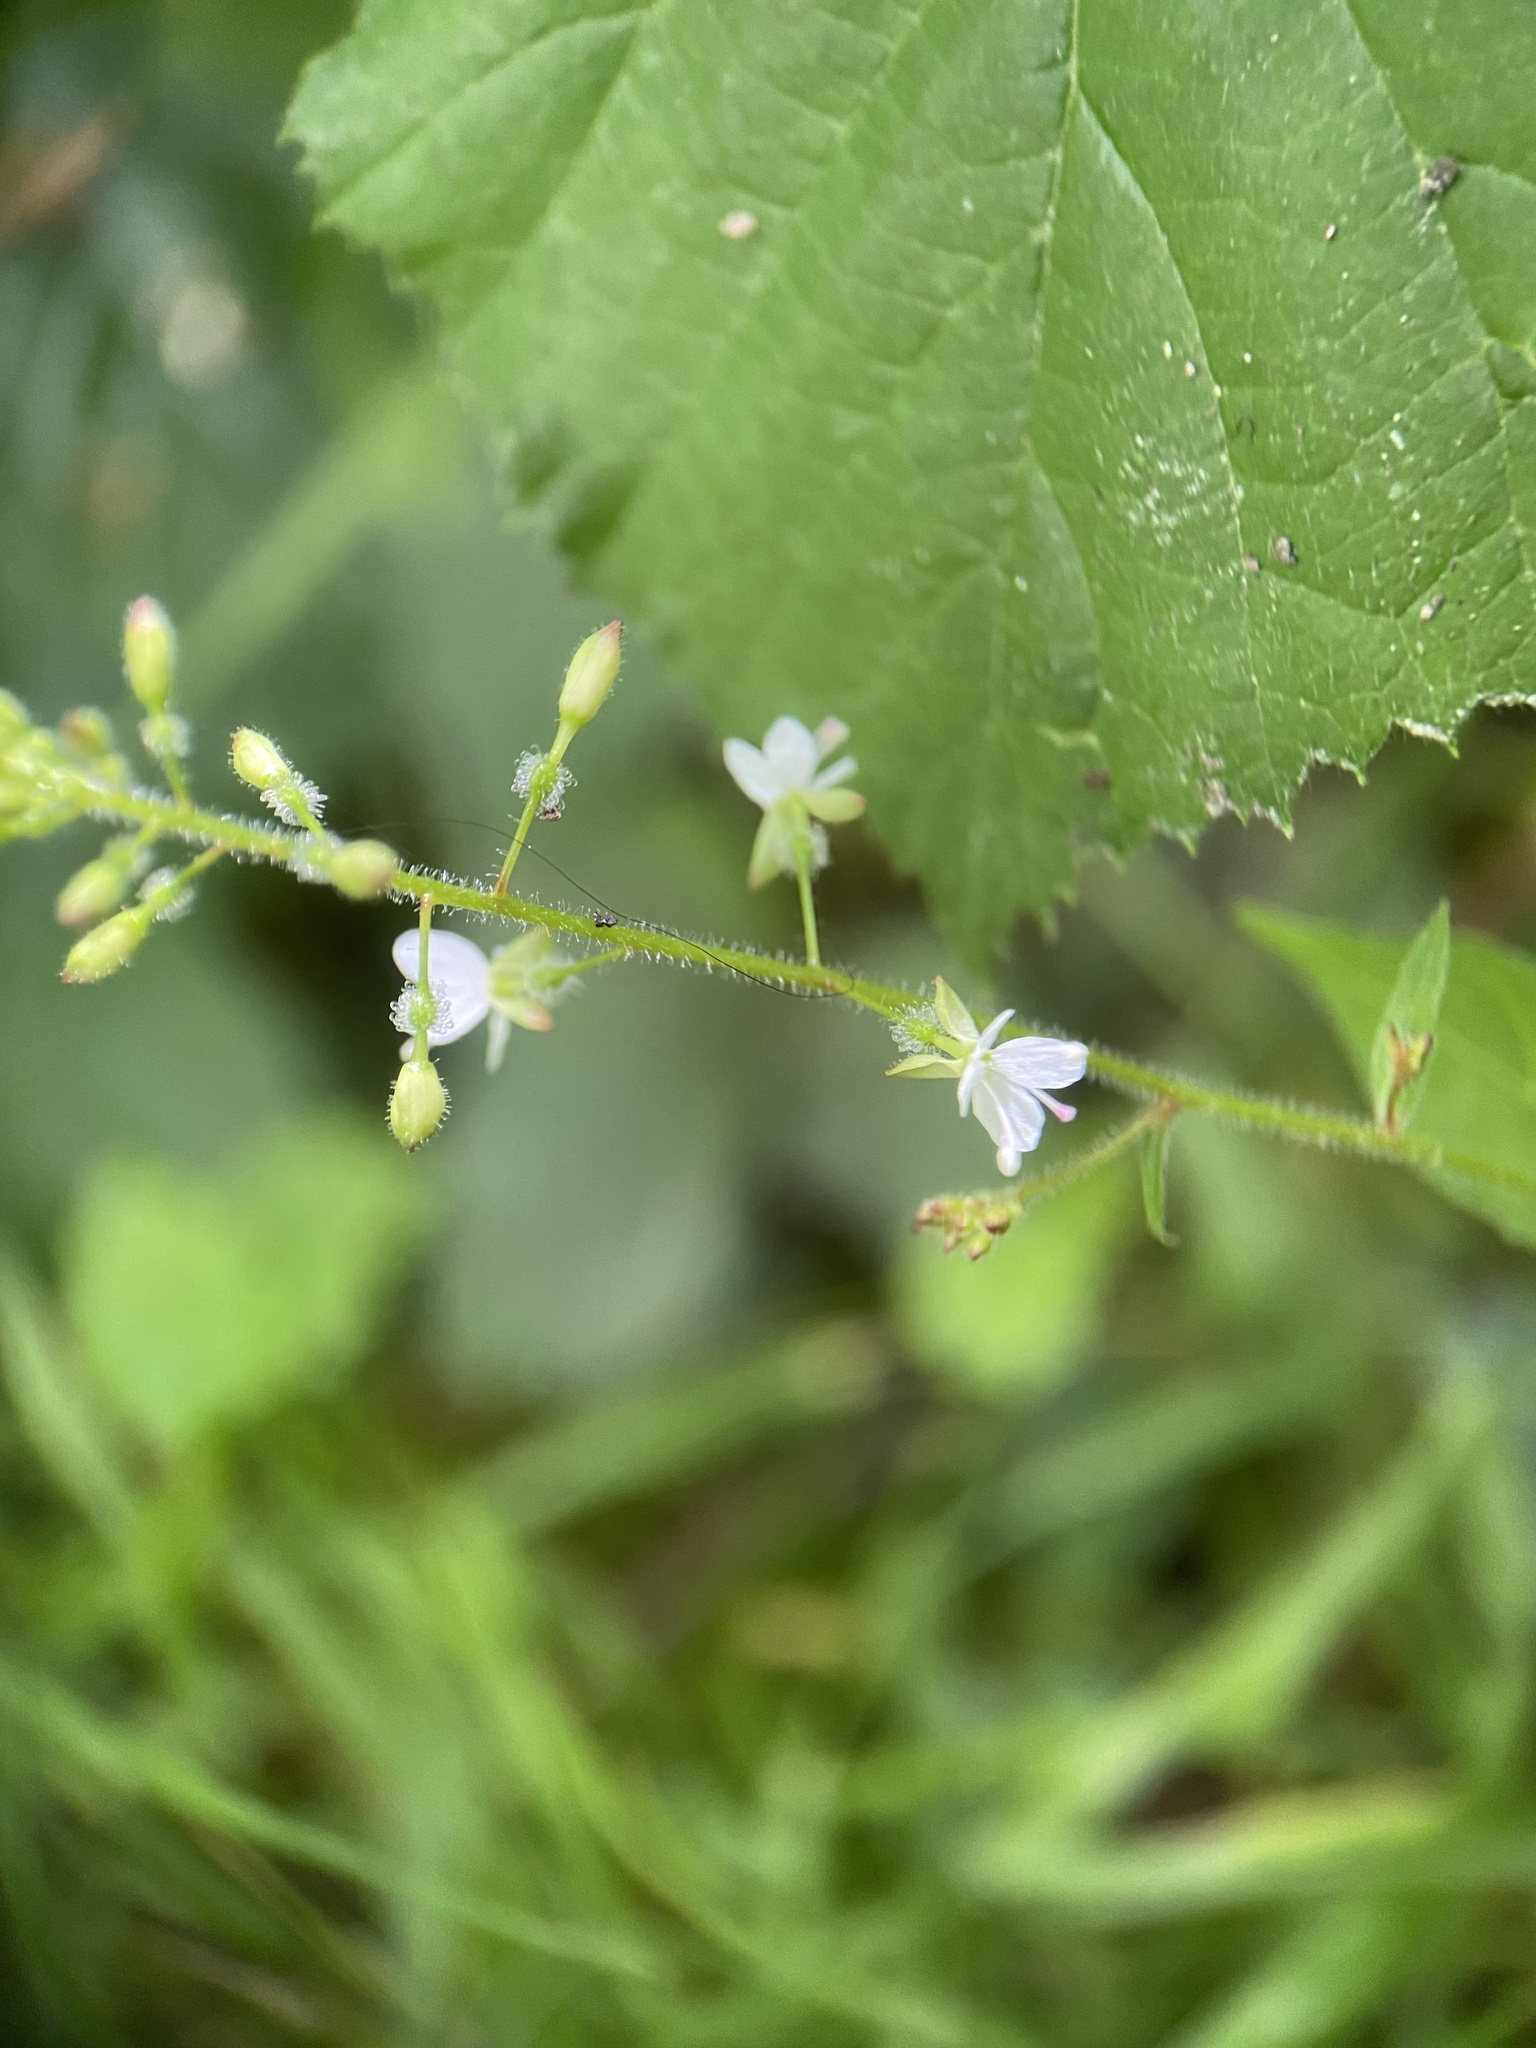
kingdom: Plantae
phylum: Tracheophyta
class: Magnoliopsida
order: Myrtales
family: Onagraceae
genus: Circaea
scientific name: Circaea lutetiana
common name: Enchanter's-nightshade
